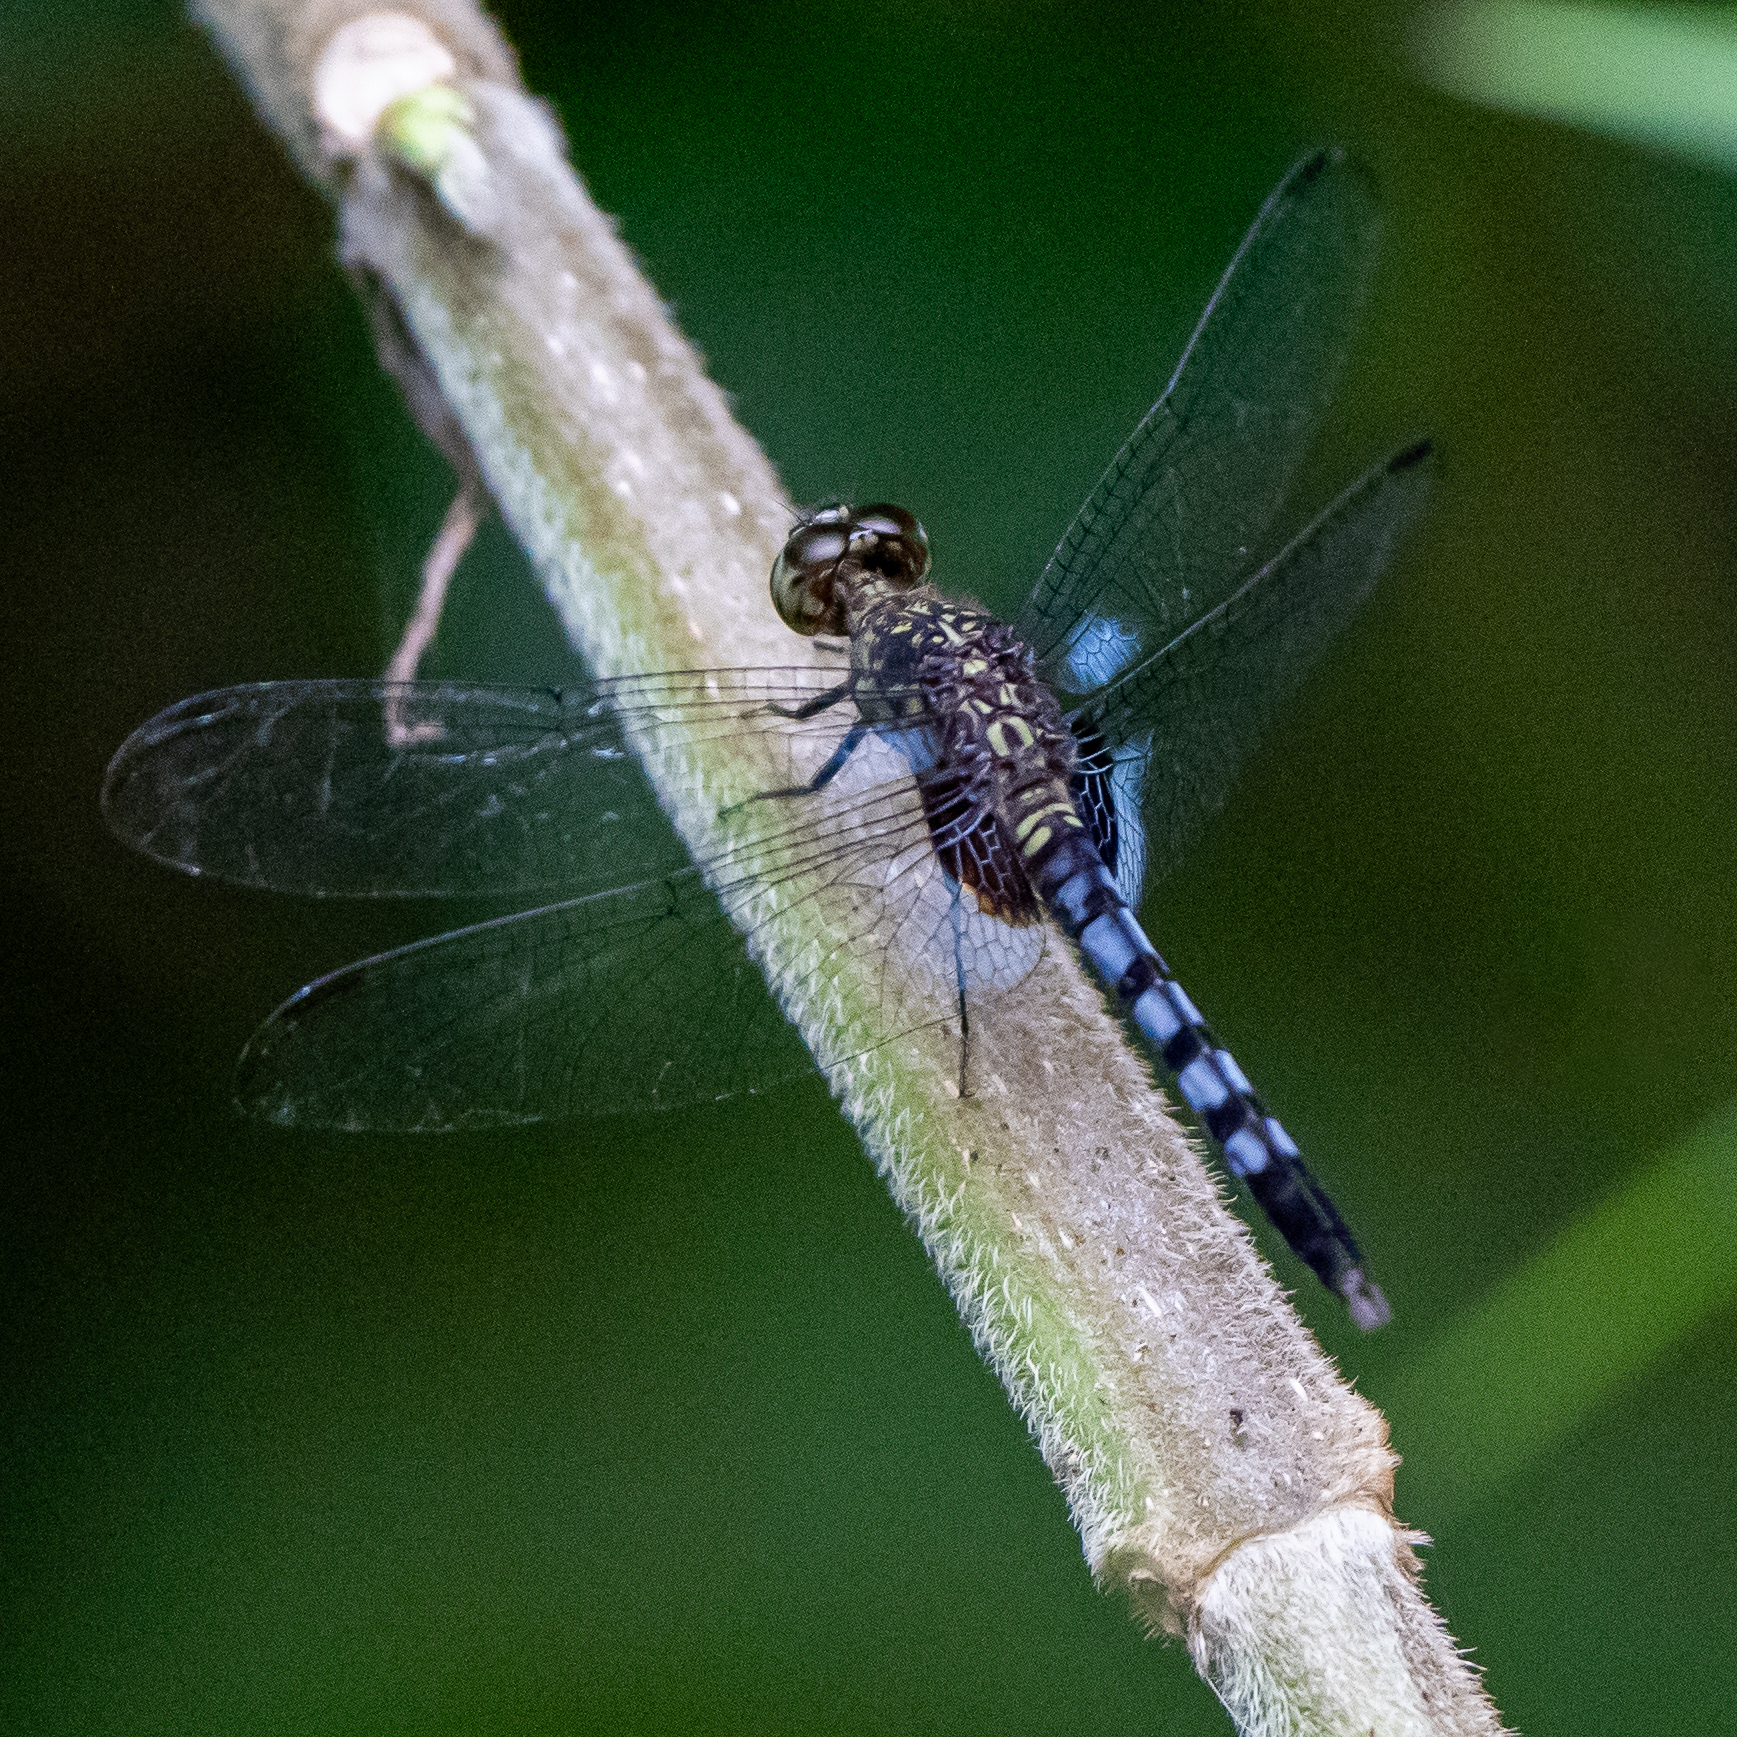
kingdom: Animalia
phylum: Arthropoda
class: Insecta
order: Odonata
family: Libellulidae
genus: Erythrodiplax
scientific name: Erythrodiplax kimminsi
